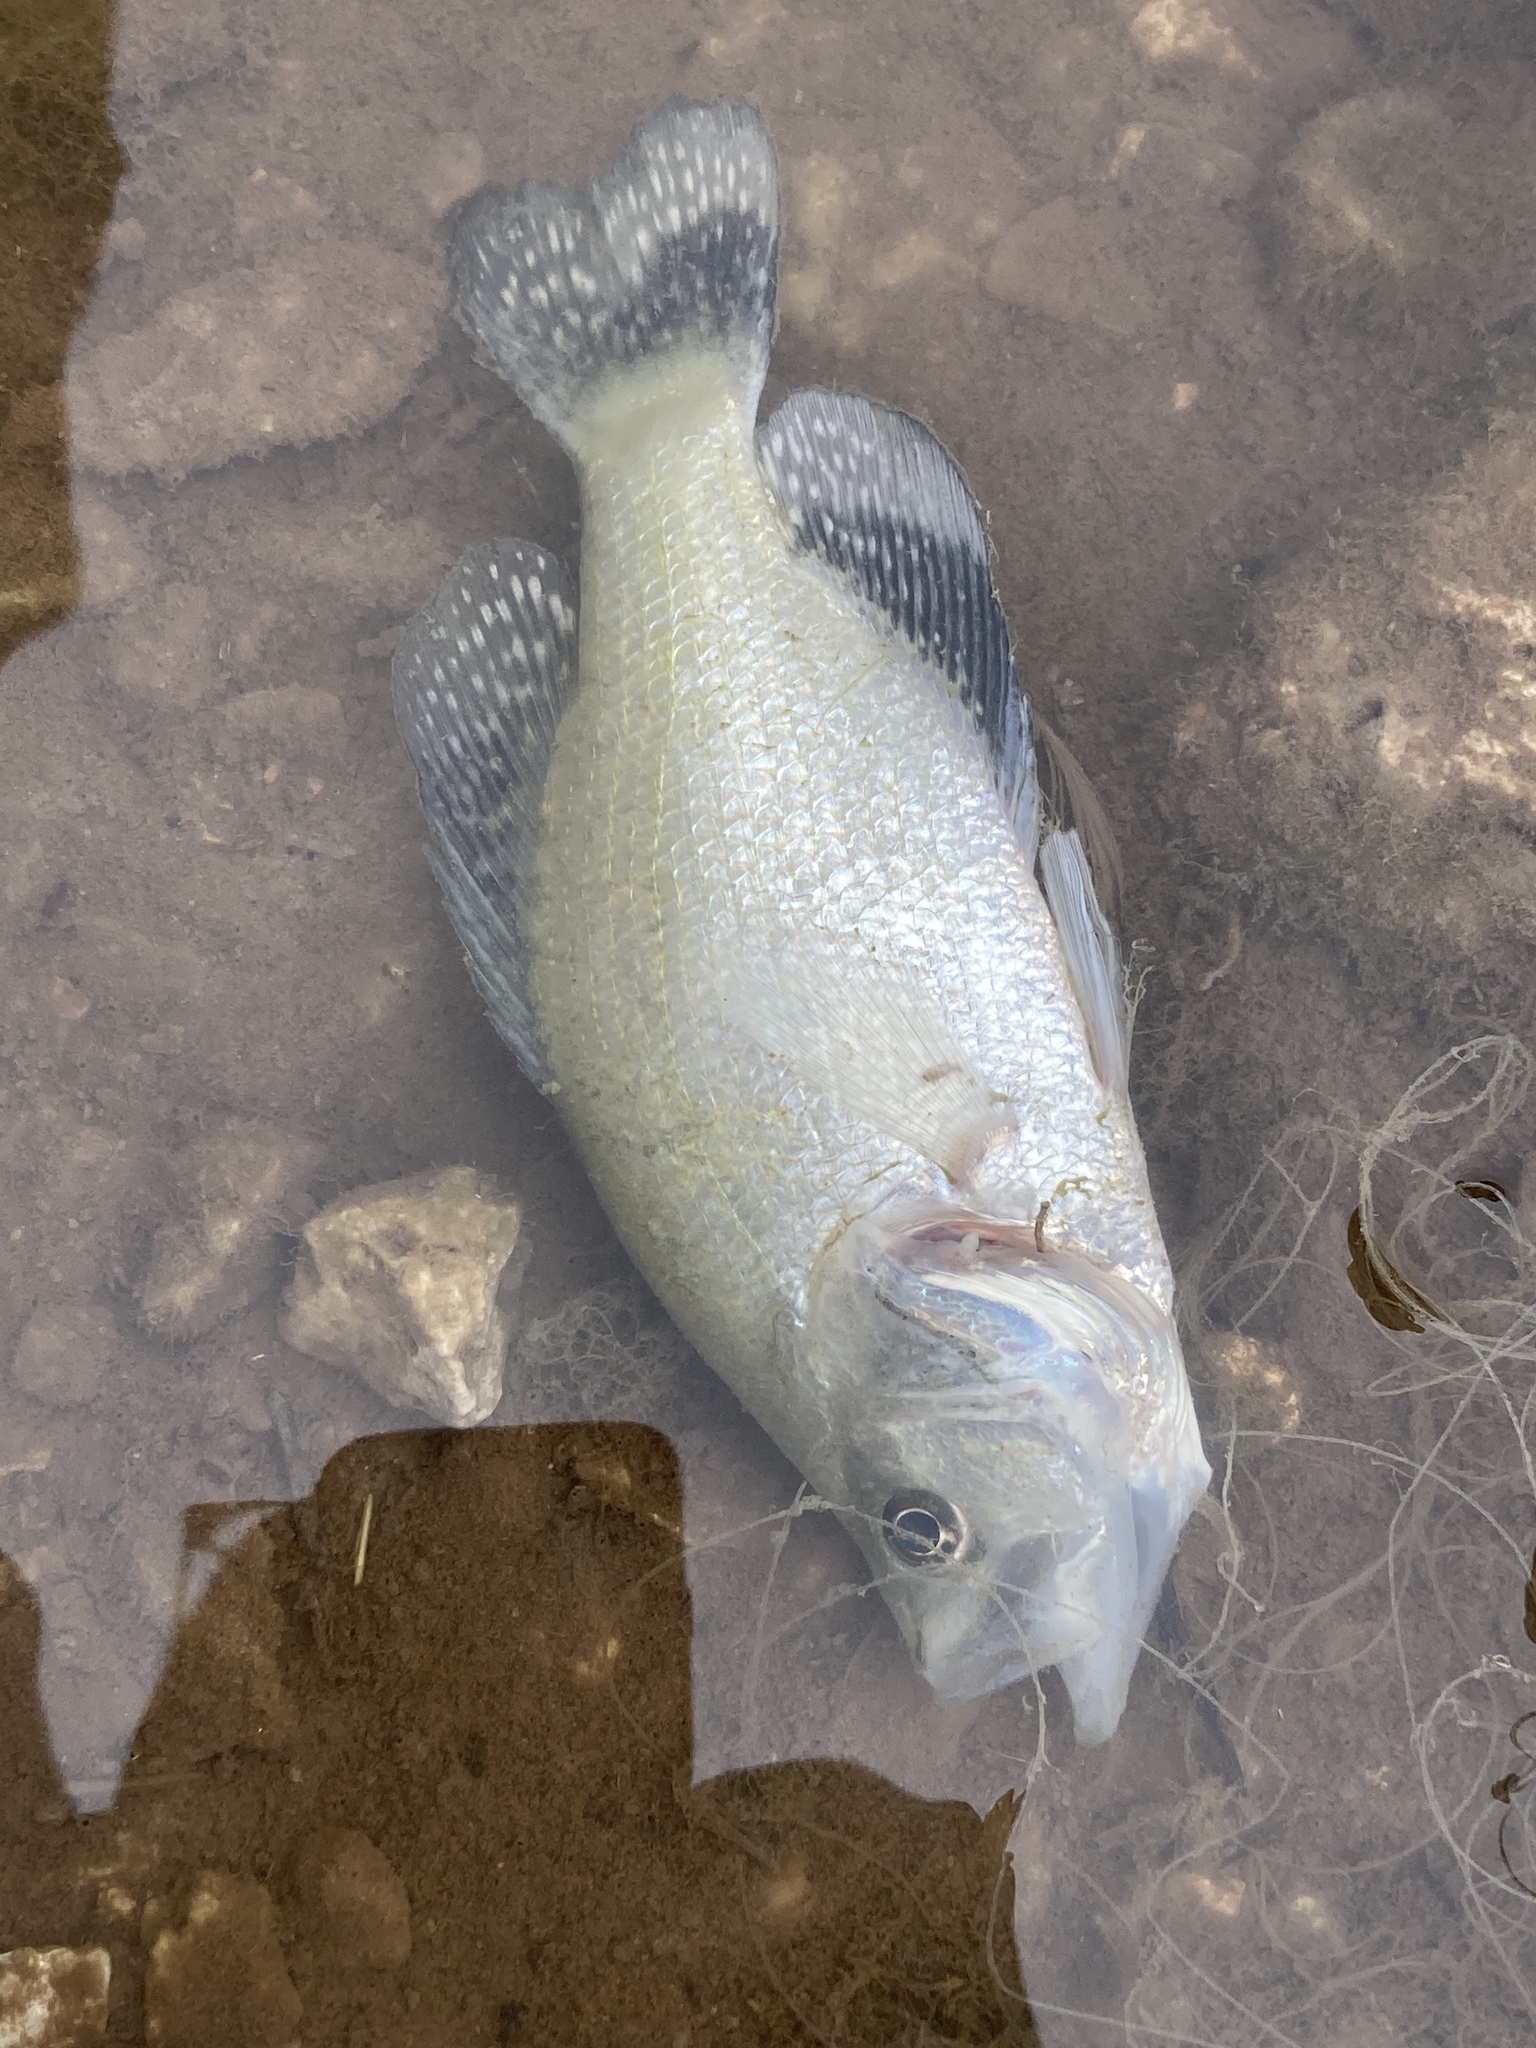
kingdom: Animalia
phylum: Chordata
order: Perciformes
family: Centrarchidae
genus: Pomoxis
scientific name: Pomoxis annularis
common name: White crappie
